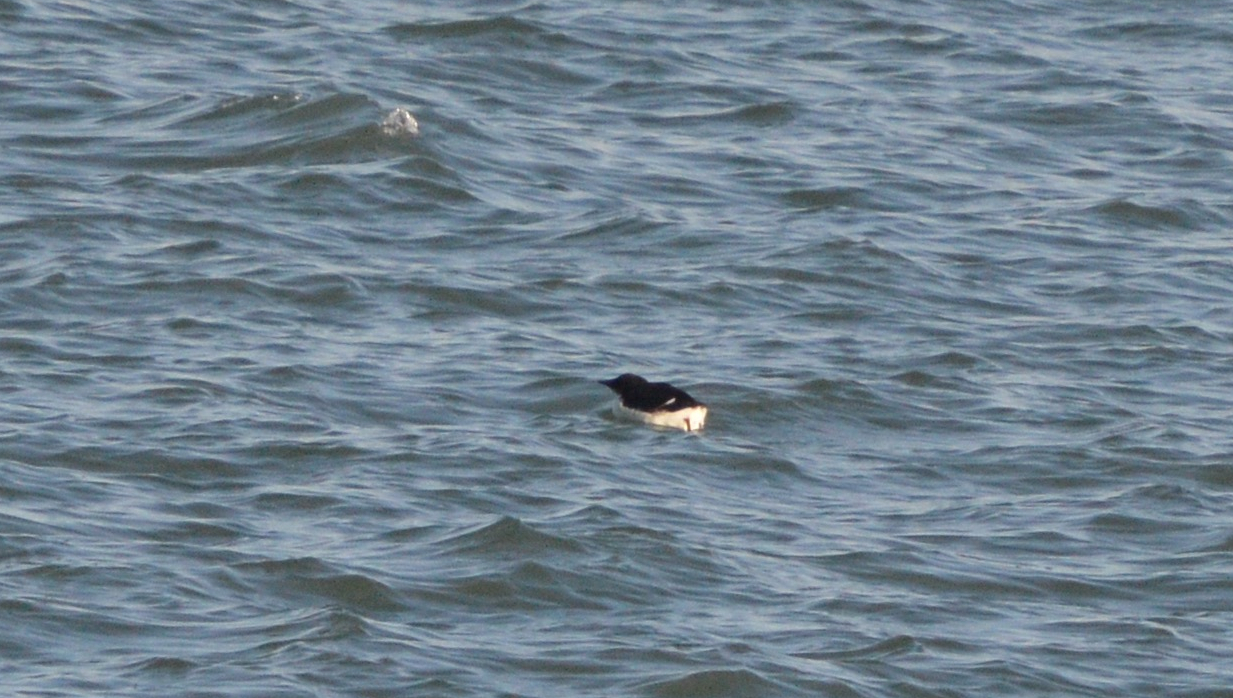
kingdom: Animalia
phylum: Chordata
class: Aves
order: Charadriiformes
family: Alcidae
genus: Uria
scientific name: Uria lomvia
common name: Thick-billed murre
